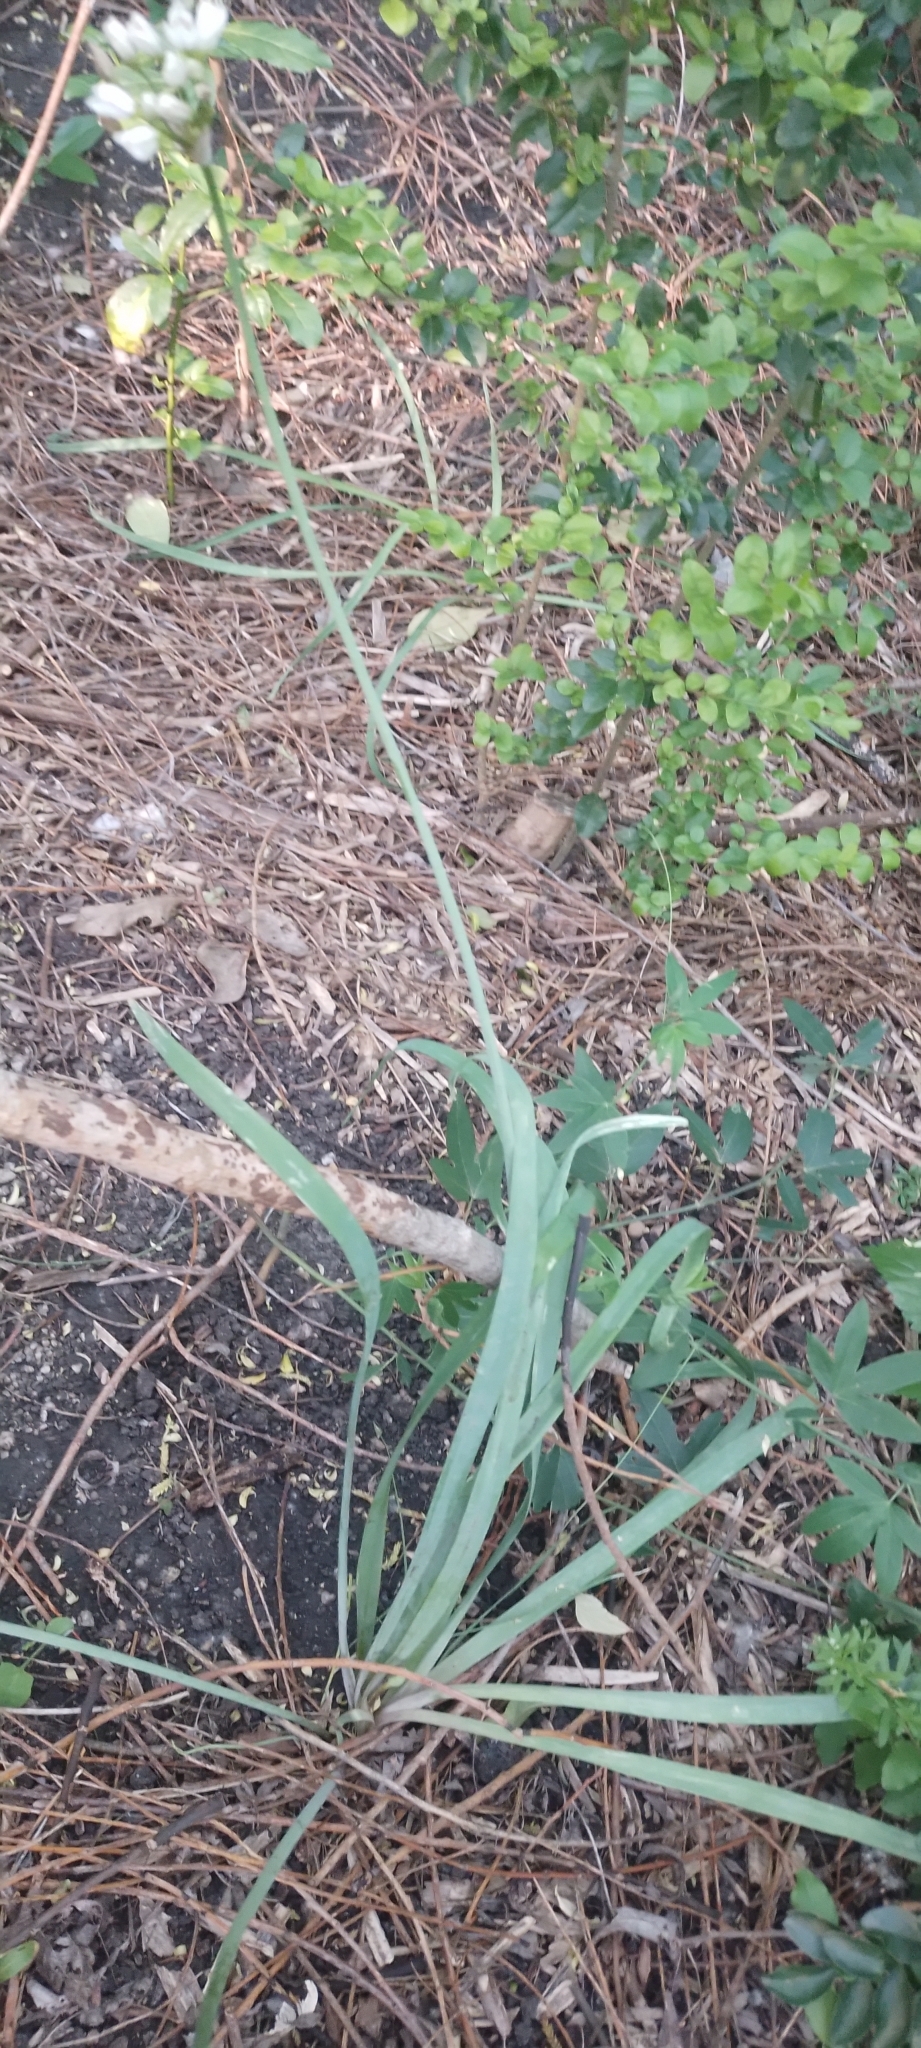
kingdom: Plantae
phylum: Tracheophyta
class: Liliopsida
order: Asparagales
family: Amaryllidaceae
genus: Nothoscordum
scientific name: Nothoscordum gracile
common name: Slender false garlic
